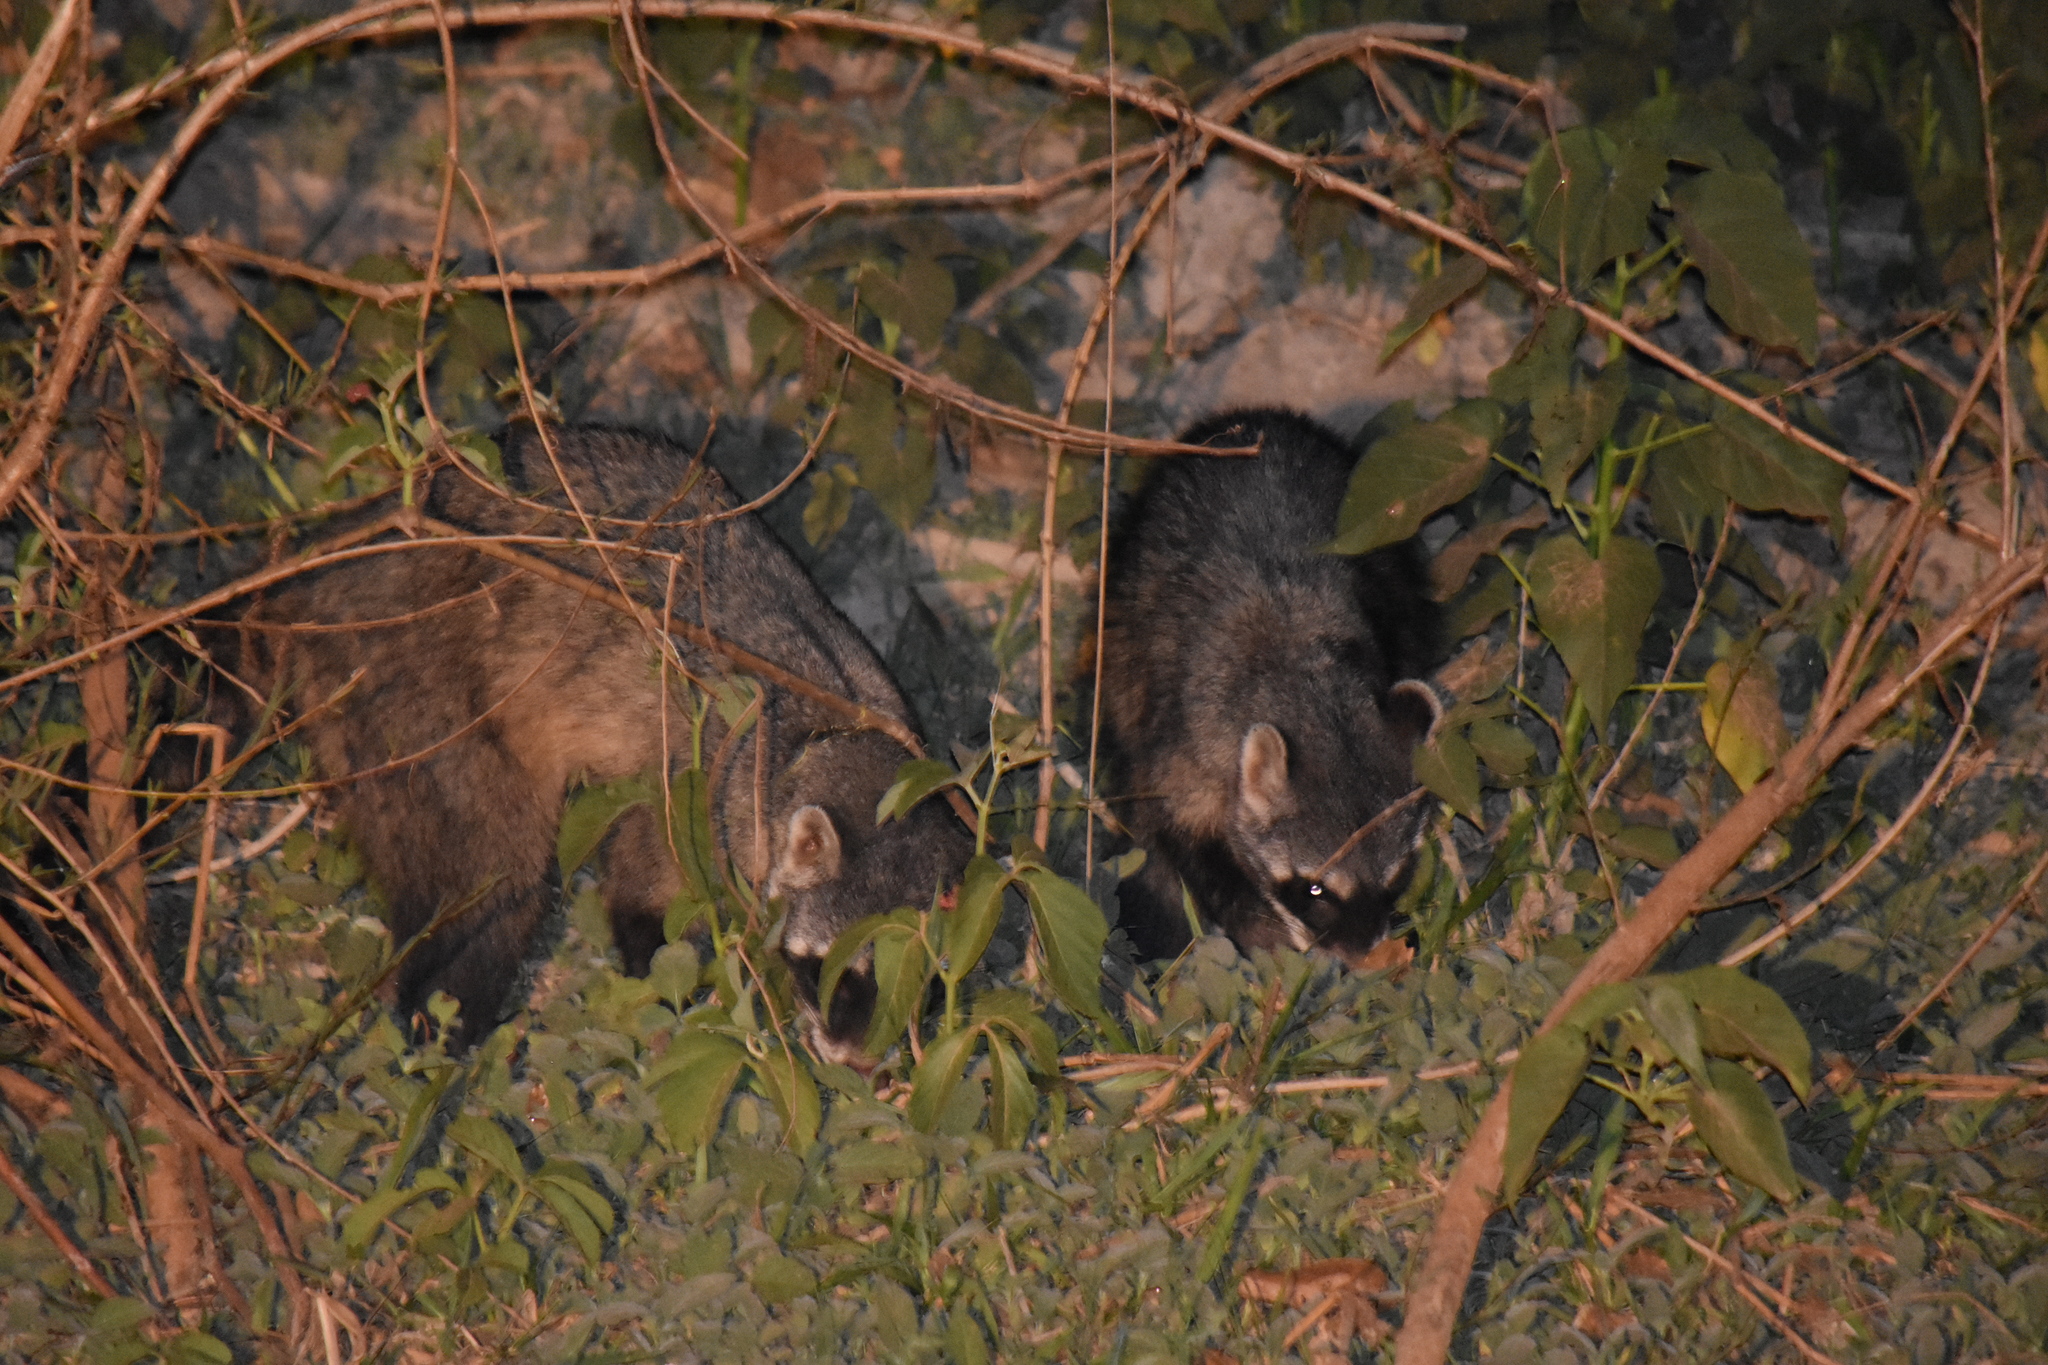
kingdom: Animalia
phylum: Chordata
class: Mammalia
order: Carnivora
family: Procyonidae
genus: Procyon
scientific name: Procyon cancrivorus
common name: Crab-eating raccoon
